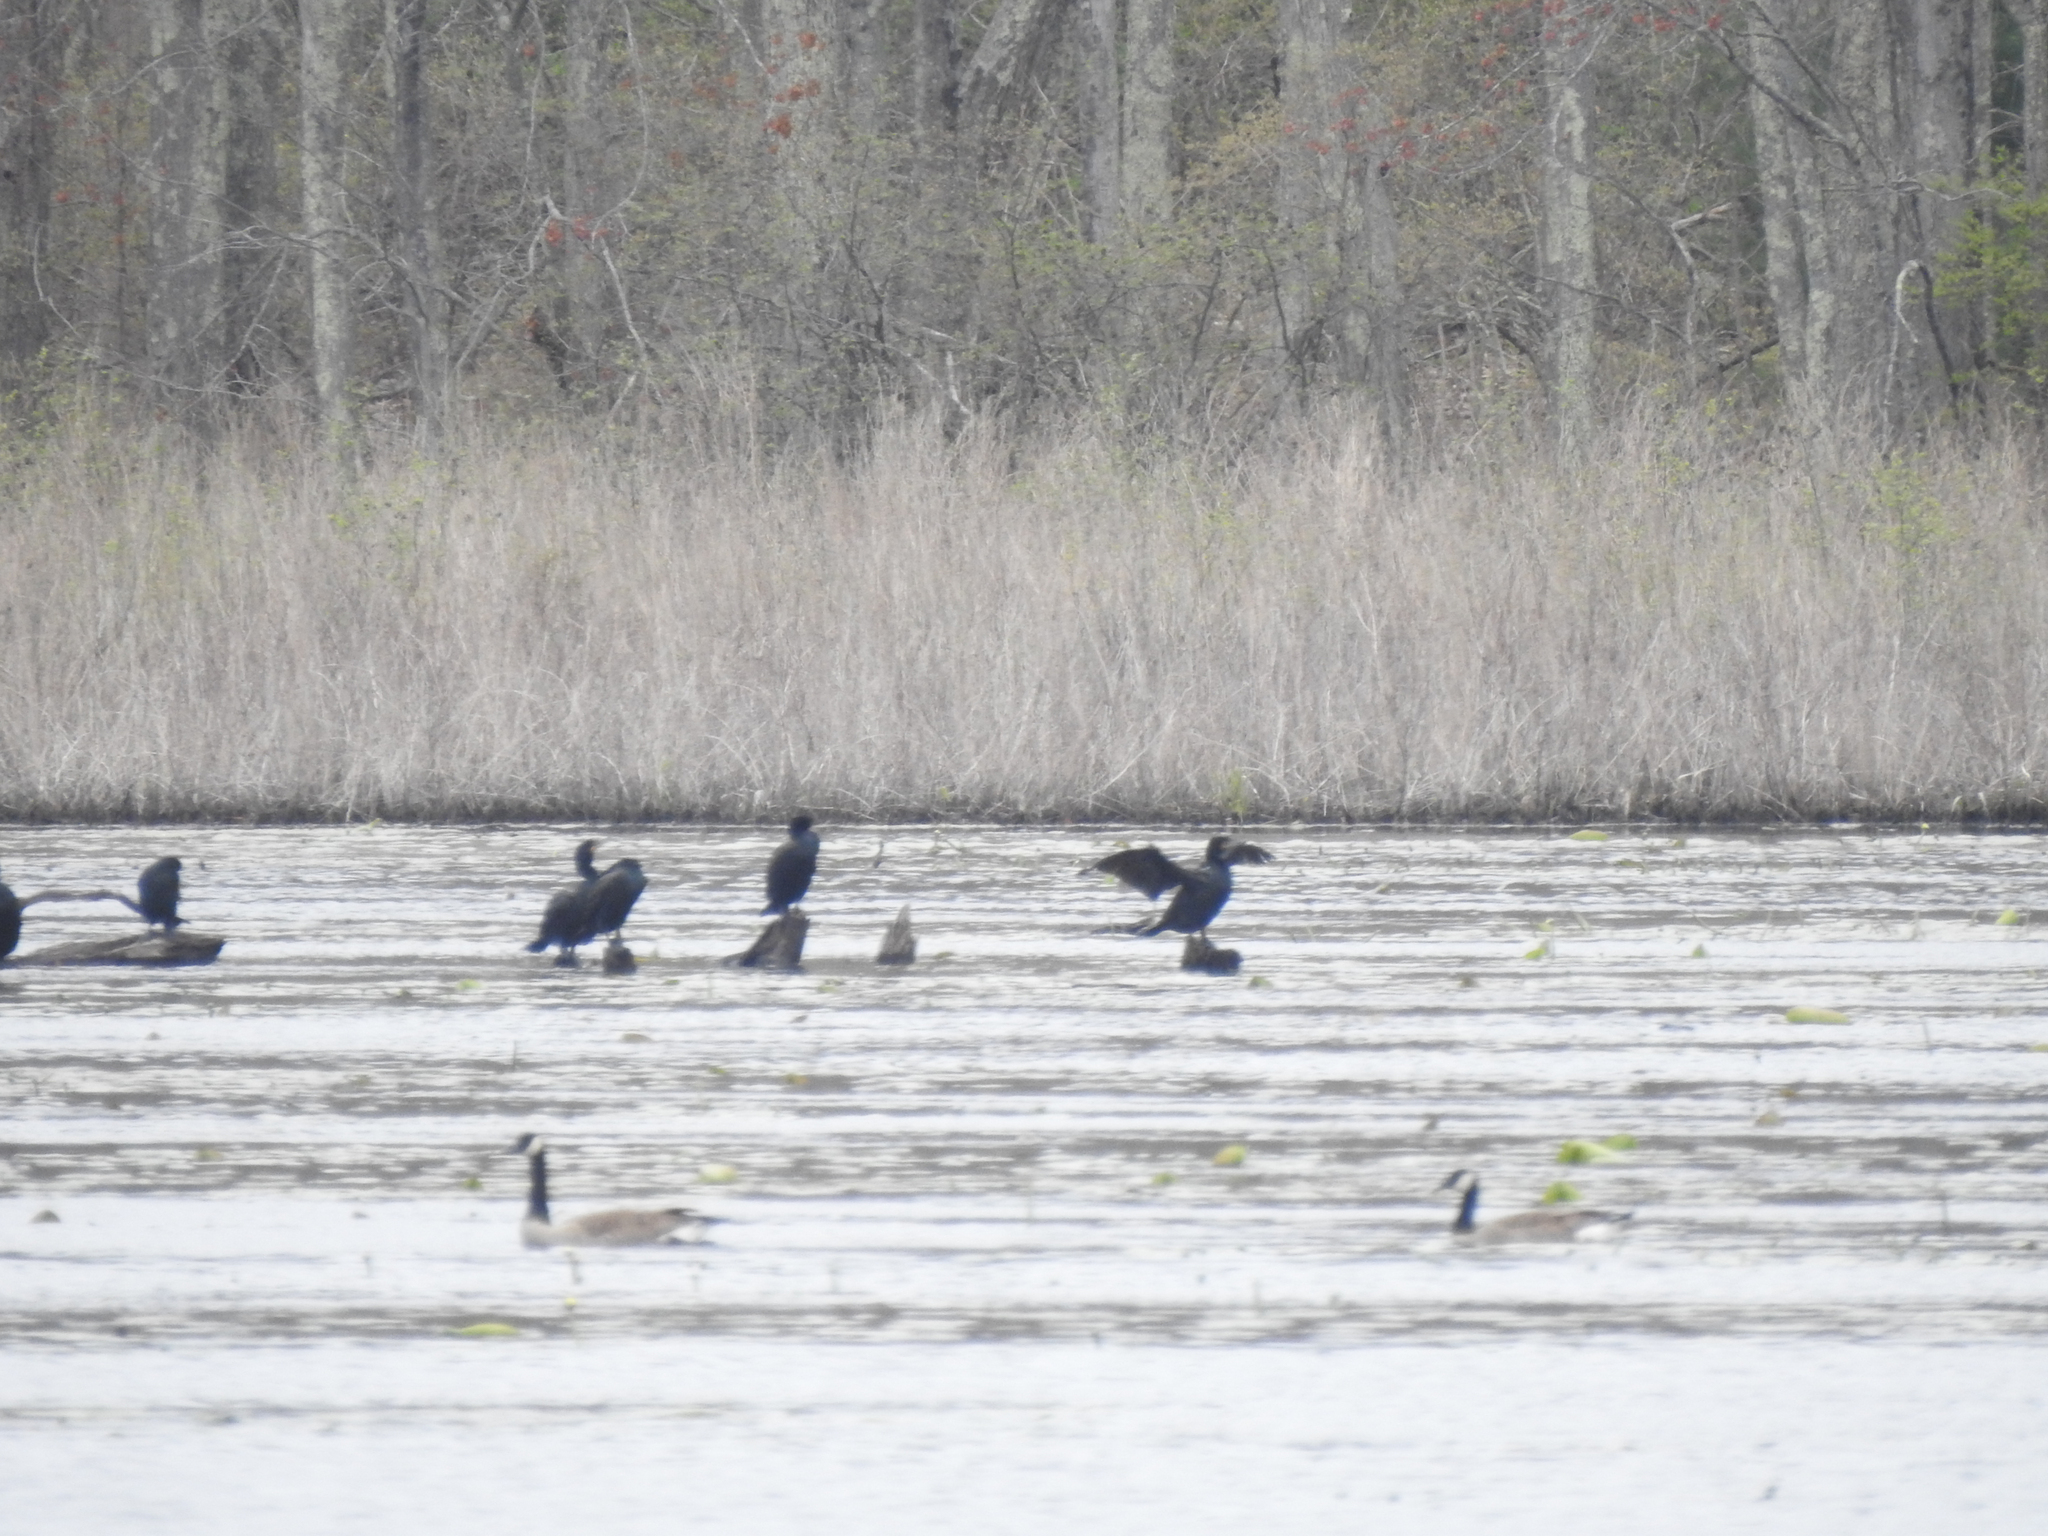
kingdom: Animalia
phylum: Chordata
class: Aves
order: Suliformes
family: Phalacrocoracidae
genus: Phalacrocorax
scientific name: Phalacrocorax auritus
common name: Double-crested cormorant
